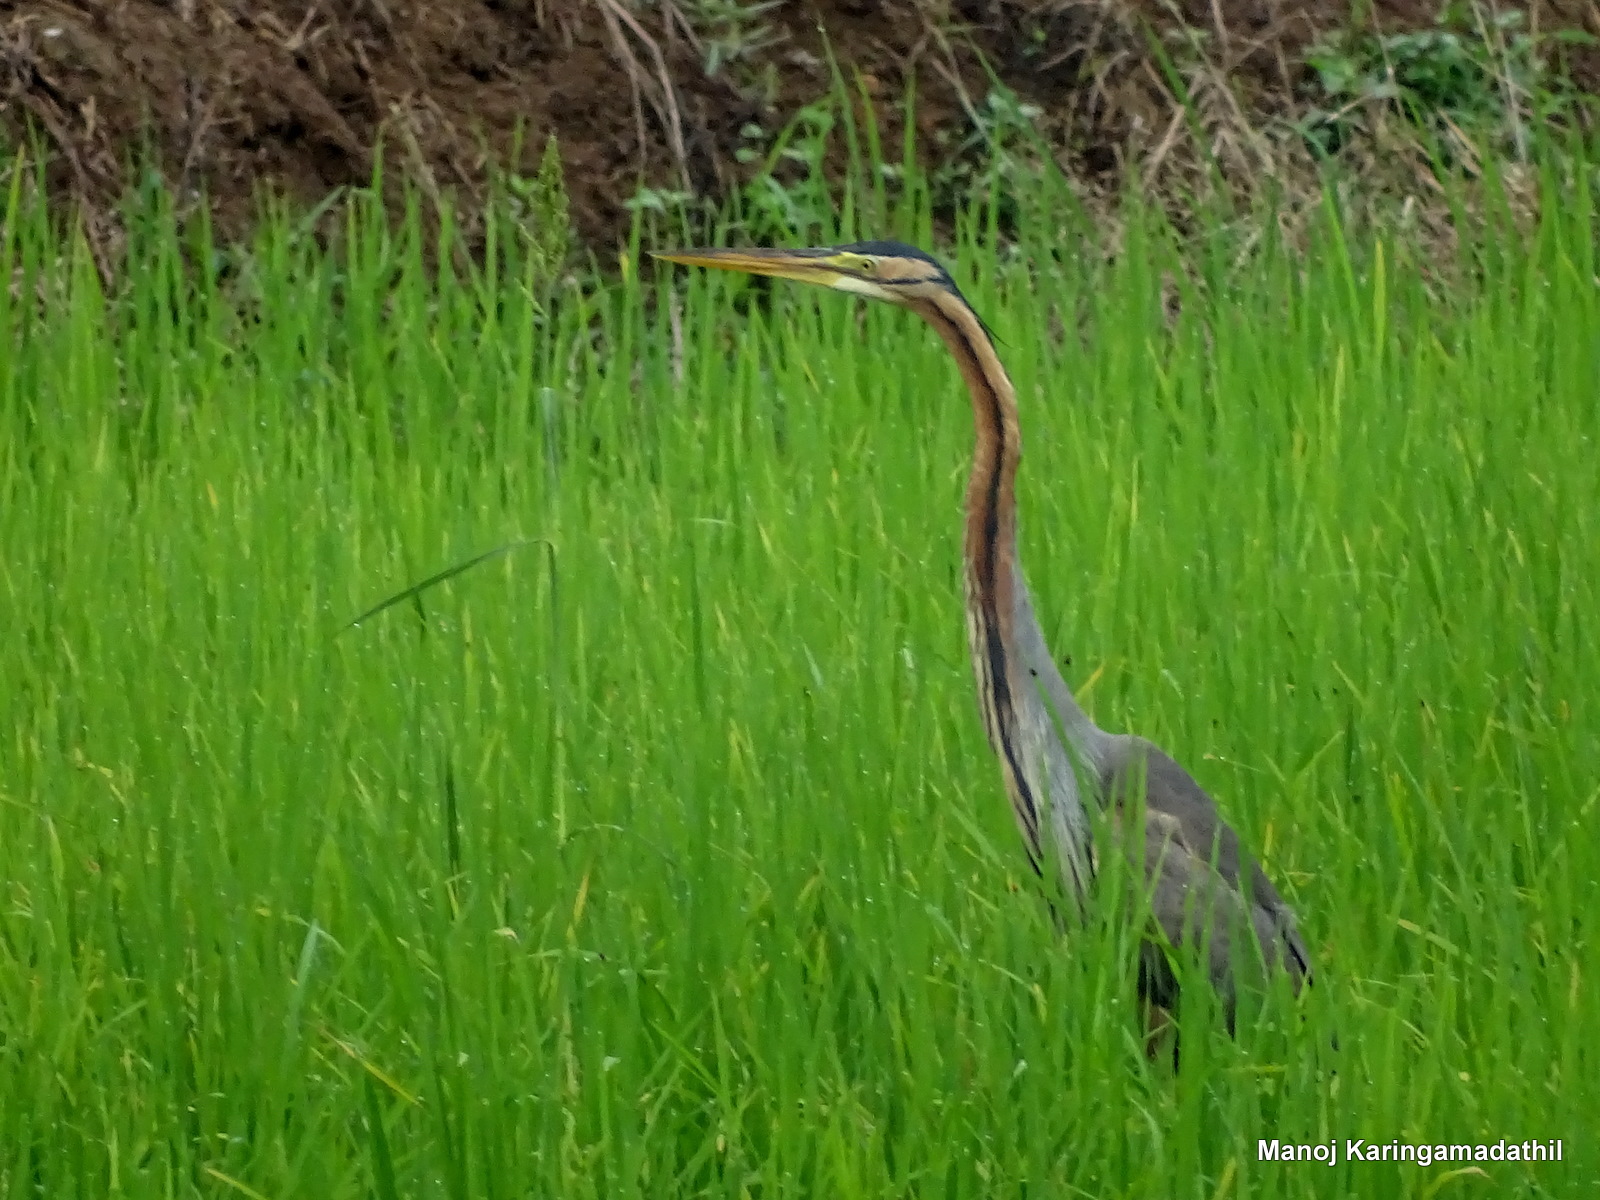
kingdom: Animalia
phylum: Chordata
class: Aves
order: Pelecaniformes
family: Ardeidae
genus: Ardea
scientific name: Ardea purpurea
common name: Purple heron
